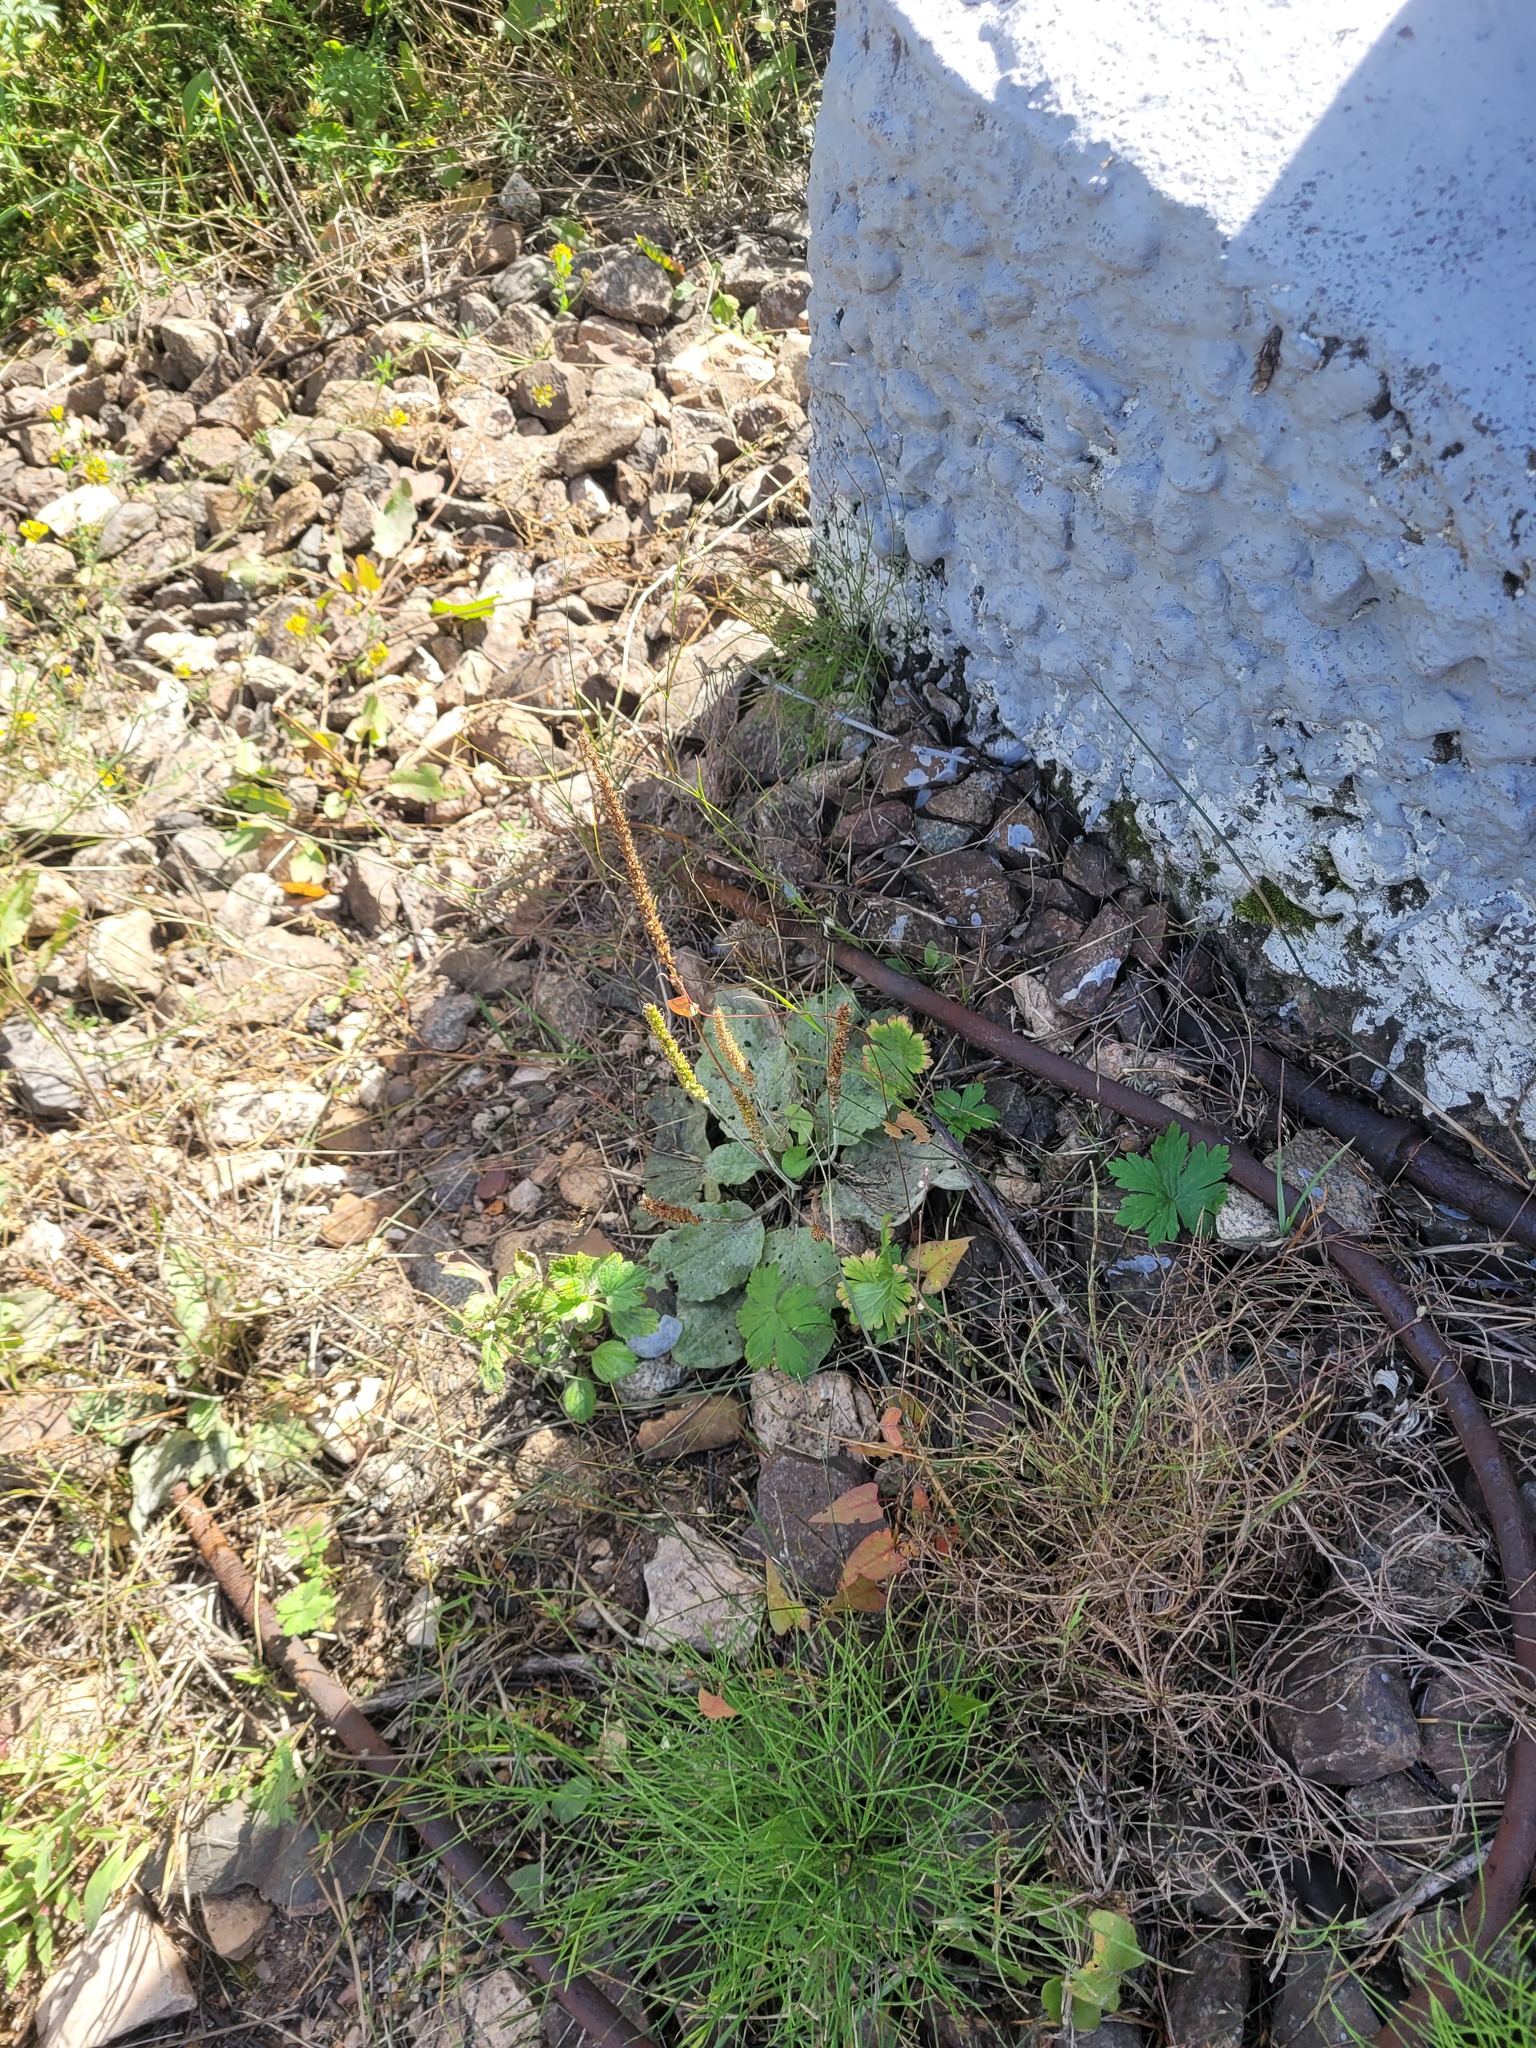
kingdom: Plantae
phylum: Tracheophyta
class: Magnoliopsida
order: Lamiales
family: Plantaginaceae
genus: Plantago
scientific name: Plantago major
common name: Common plantain
